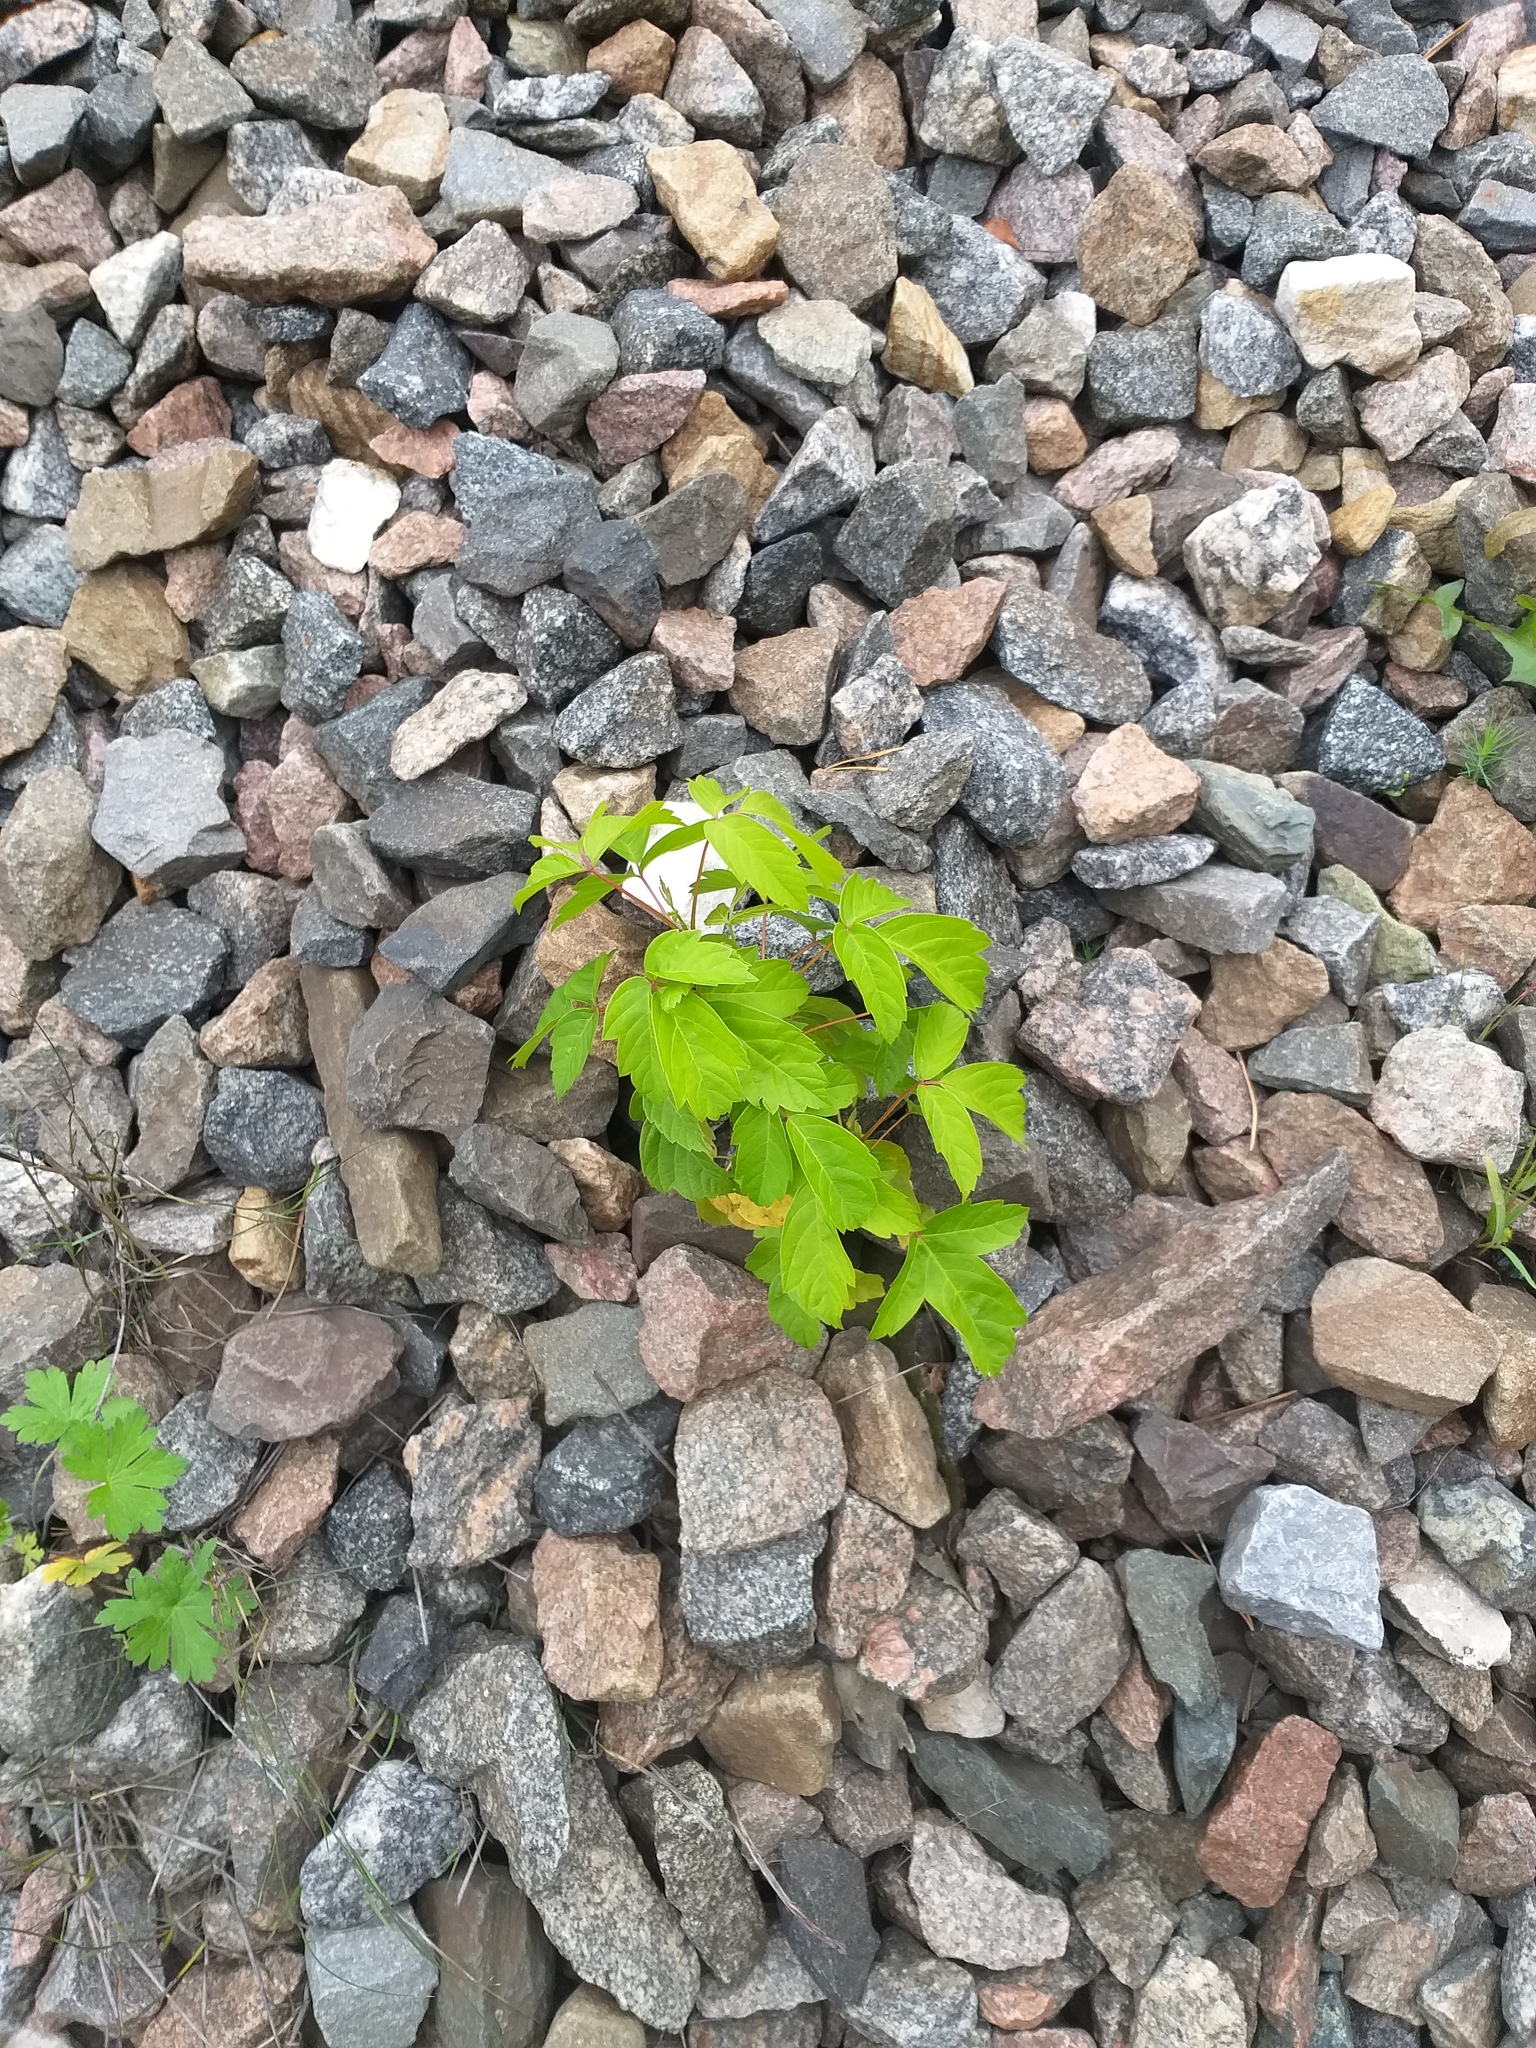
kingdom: Plantae
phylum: Tracheophyta
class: Magnoliopsida
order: Sapindales
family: Sapindaceae
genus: Acer
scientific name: Acer negundo
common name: Ashleaf maple
